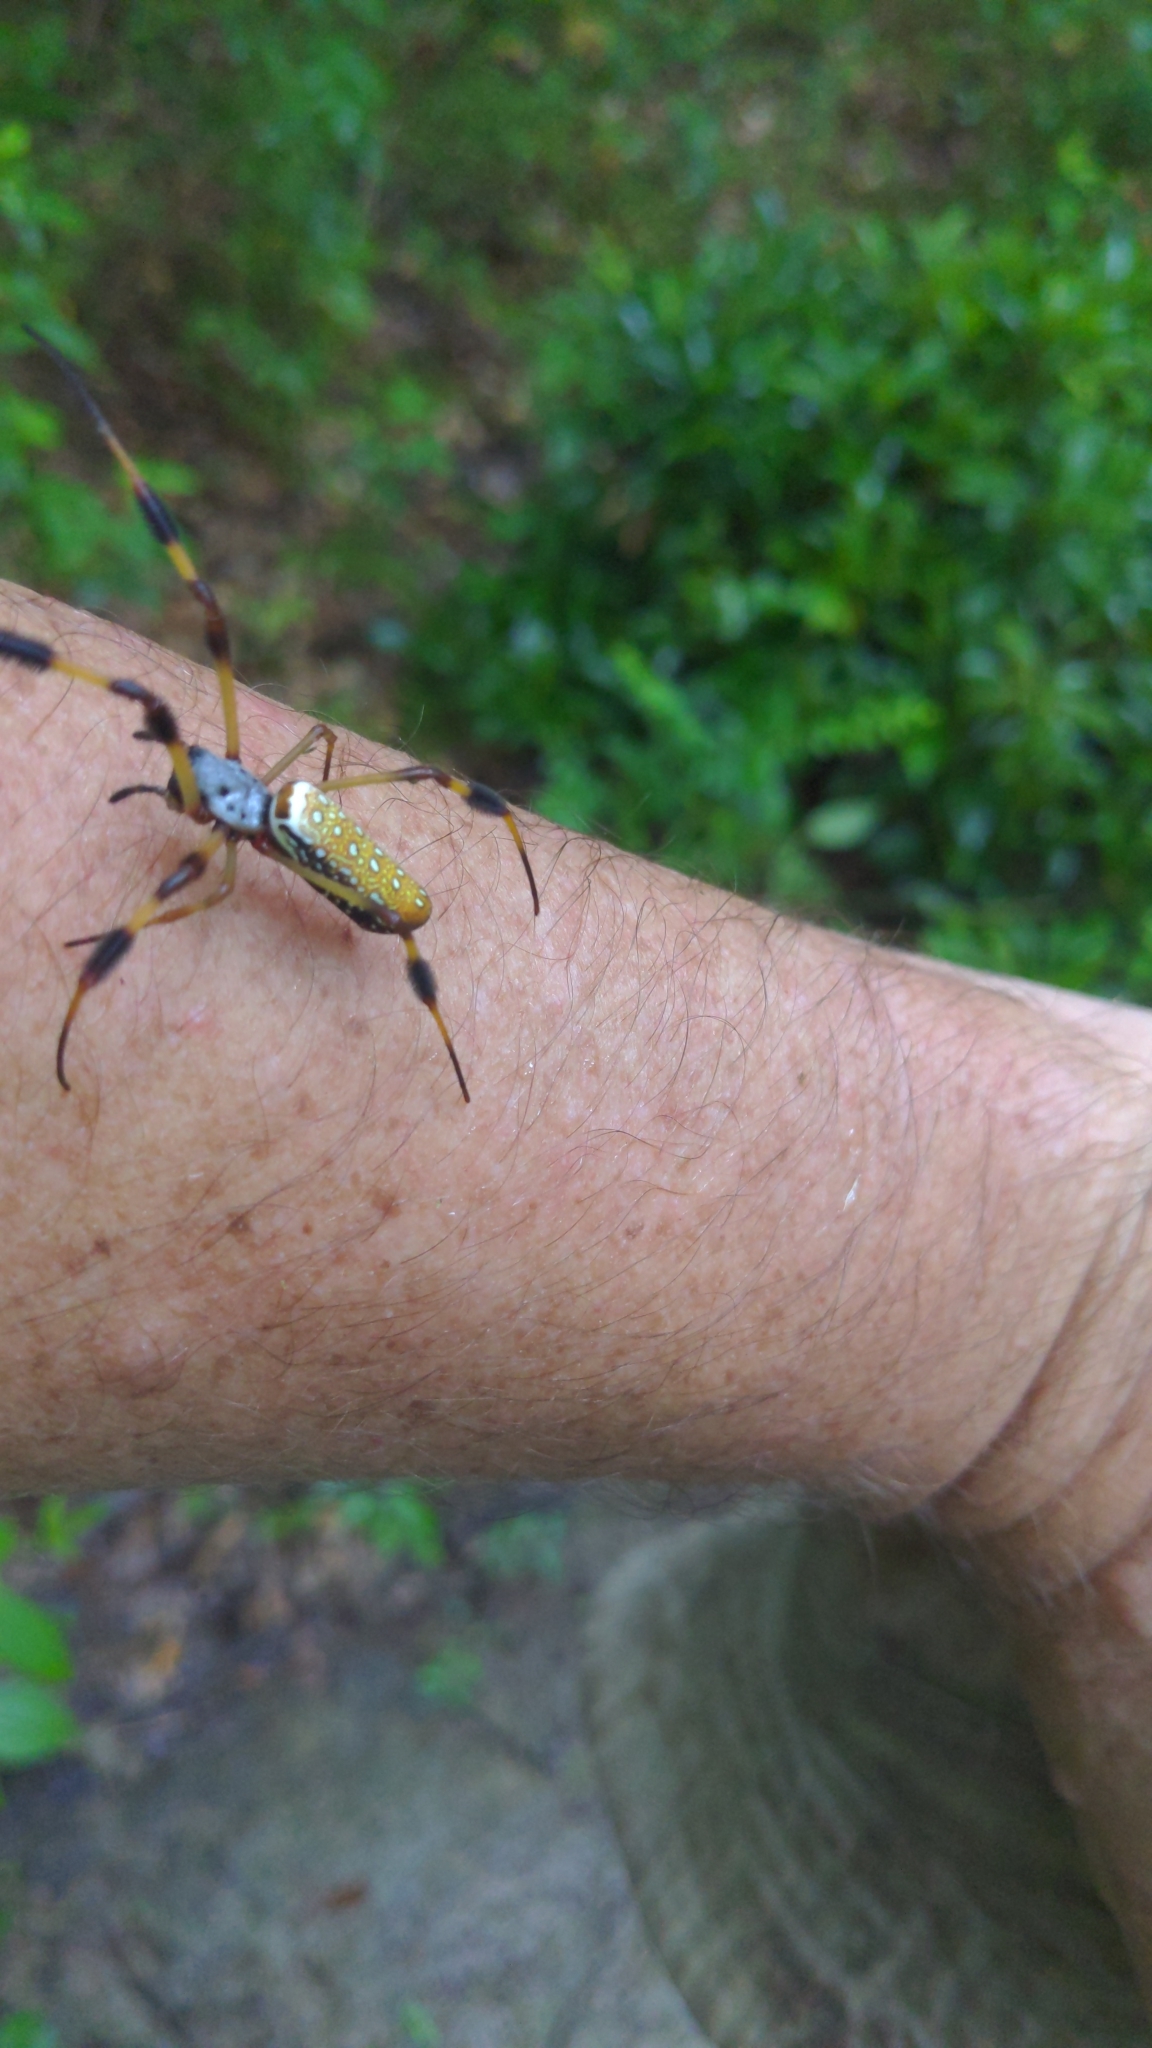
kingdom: Animalia
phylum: Arthropoda
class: Arachnida
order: Araneae
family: Araneidae
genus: Trichonephila
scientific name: Trichonephila clavipes
